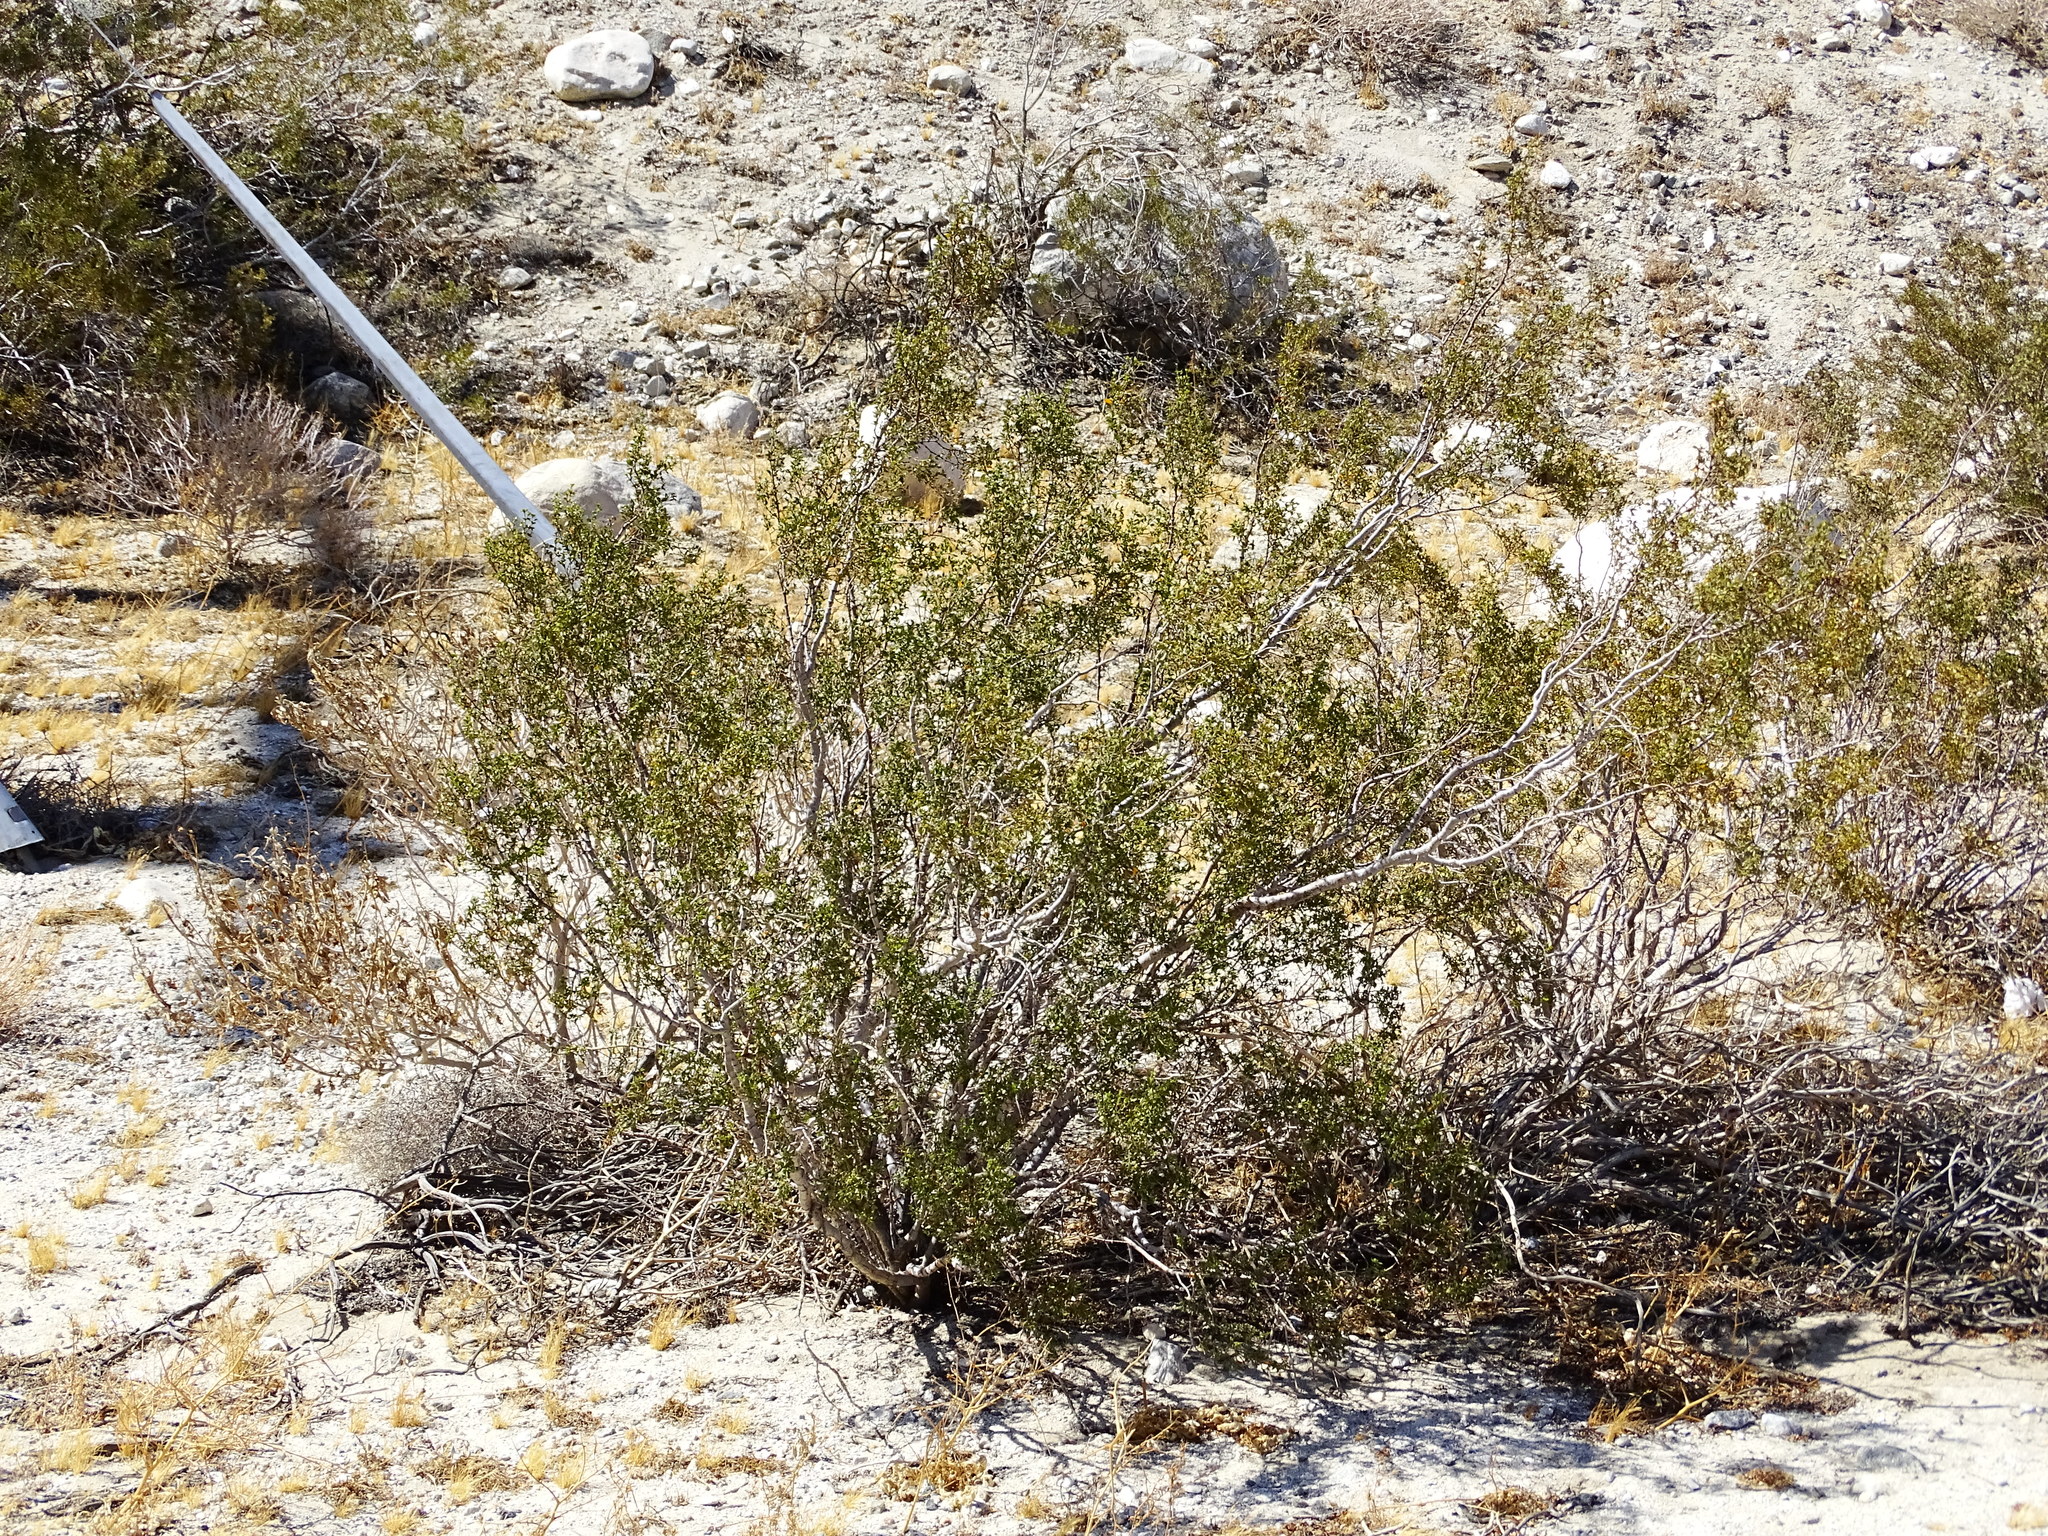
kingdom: Plantae
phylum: Tracheophyta
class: Magnoliopsida
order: Zygophyllales
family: Zygophyllaceae
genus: Larrea
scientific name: Larrea tridentata
